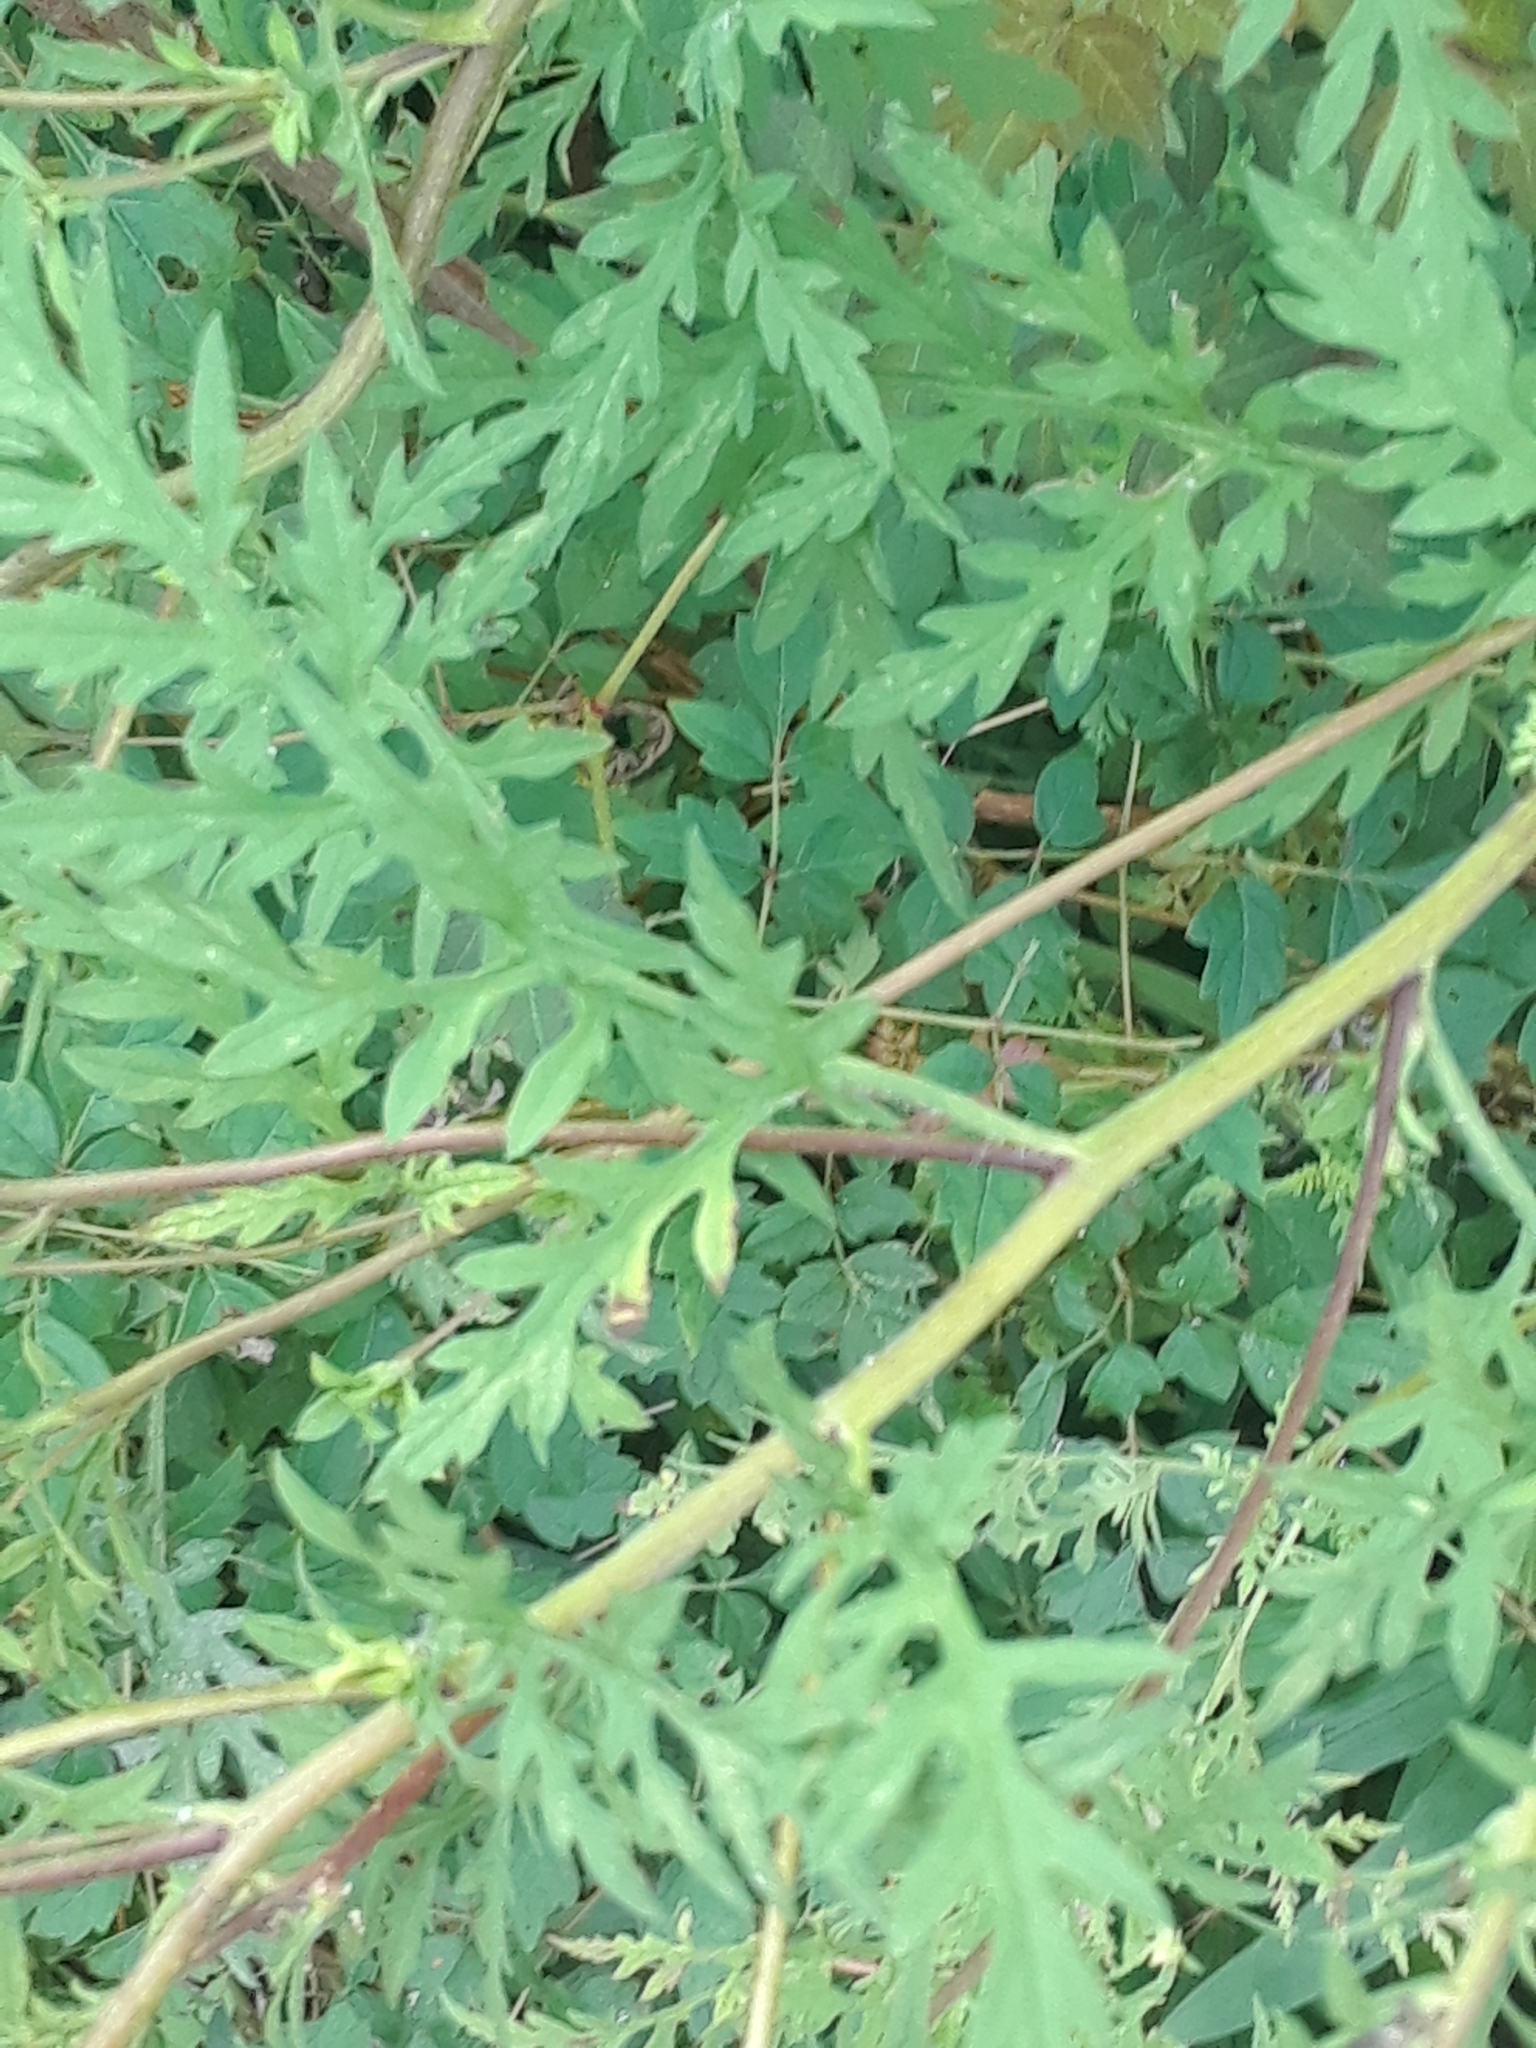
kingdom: Plantae
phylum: Tracheophyta
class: Magnoliopsida
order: Asterales
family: Asteraceae
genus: Ambrosia
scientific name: Ambrosia artemisiifolia
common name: Annual ragweed
